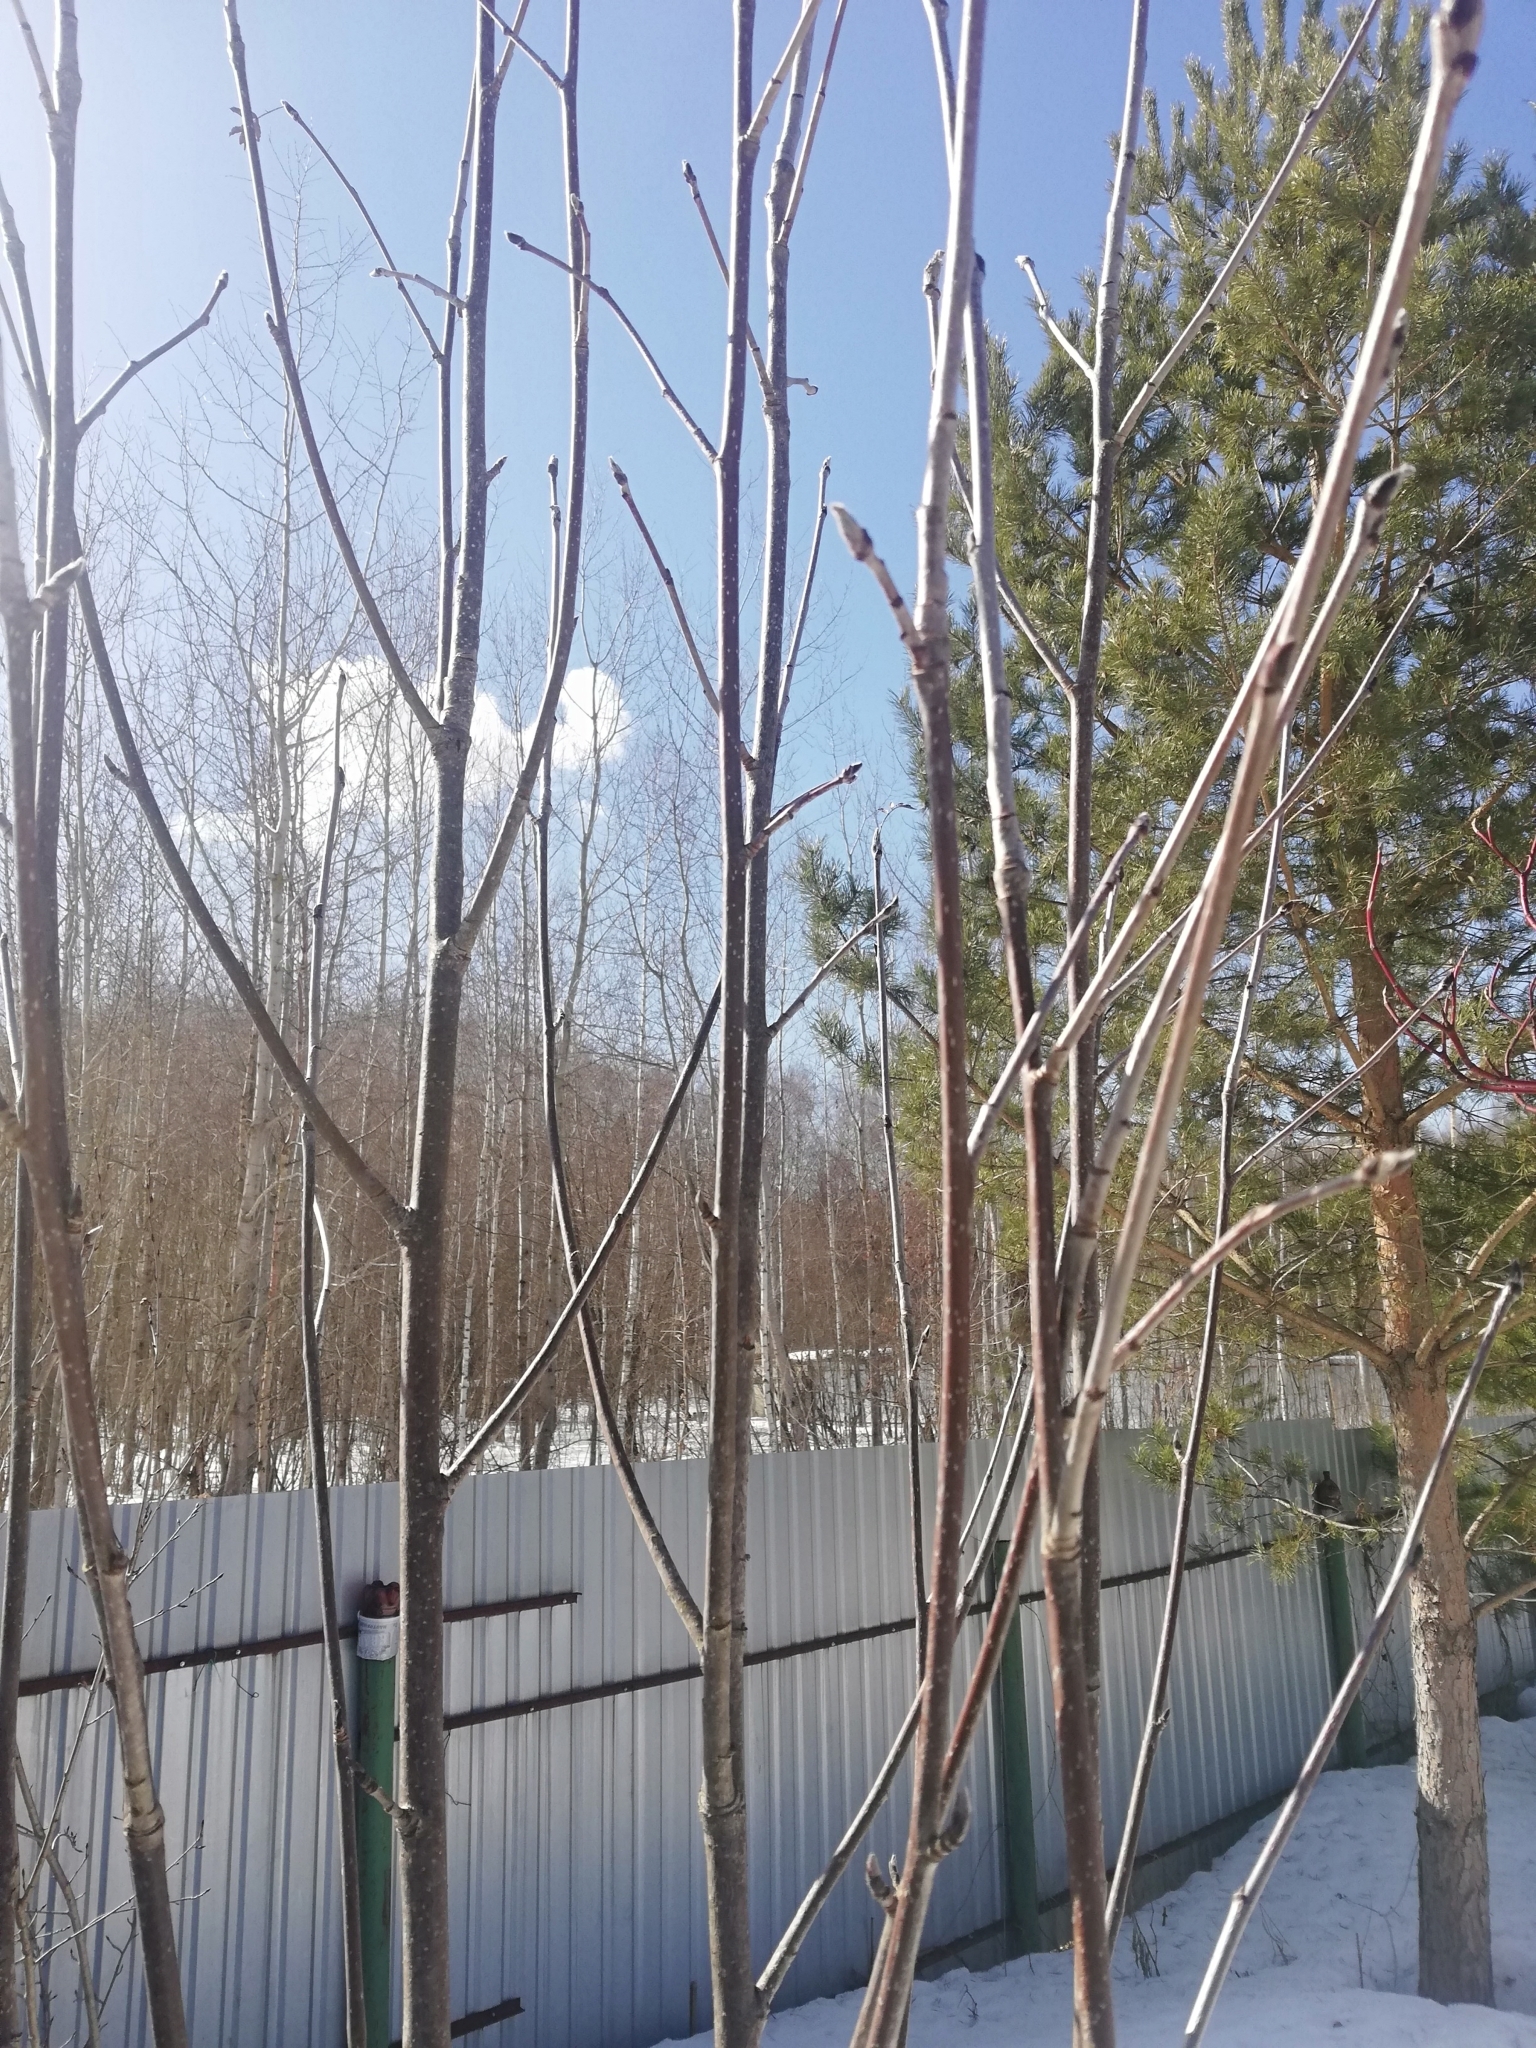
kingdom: Plantae
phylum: Tracheophyta
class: Magnoliopsida
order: Rosales
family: Rosaceae
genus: Sorbus
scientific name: Sorbus aucuparia
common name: Rowan
